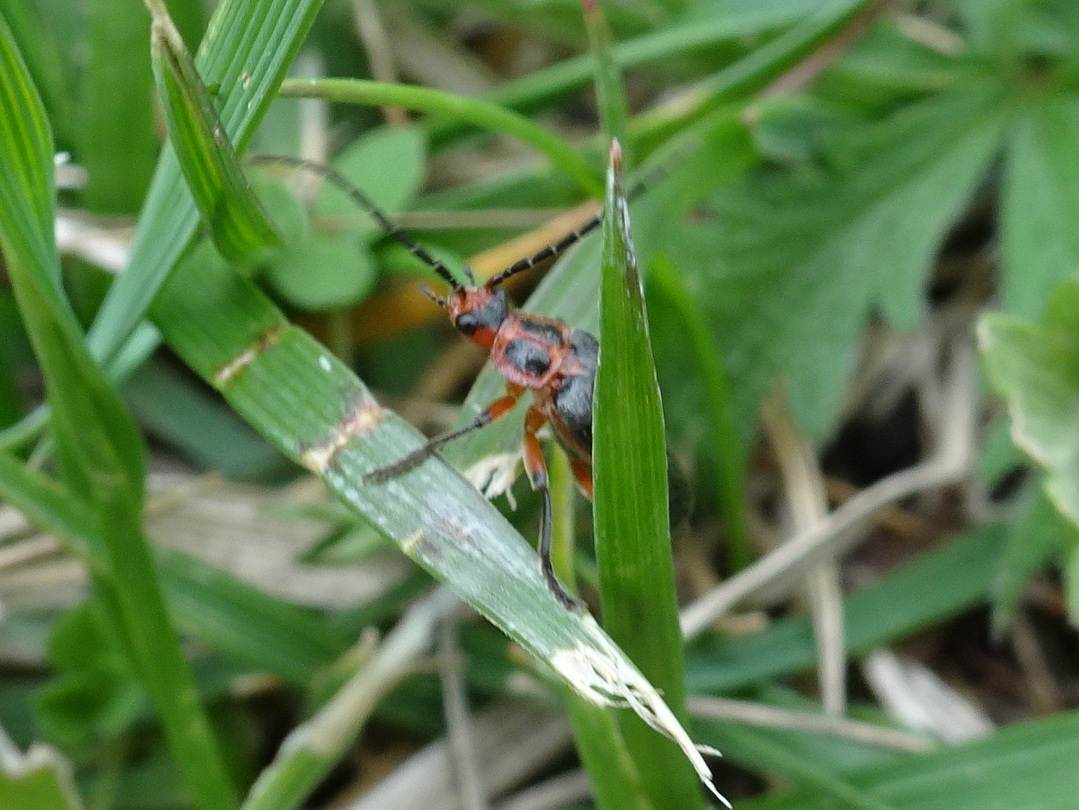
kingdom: Animalia
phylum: Arthropoda
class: Insecta
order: Coleoptera
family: Cantharidae
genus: Atalantycha
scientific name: Atalantycha bilineata
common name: Two-lined leatherwing
